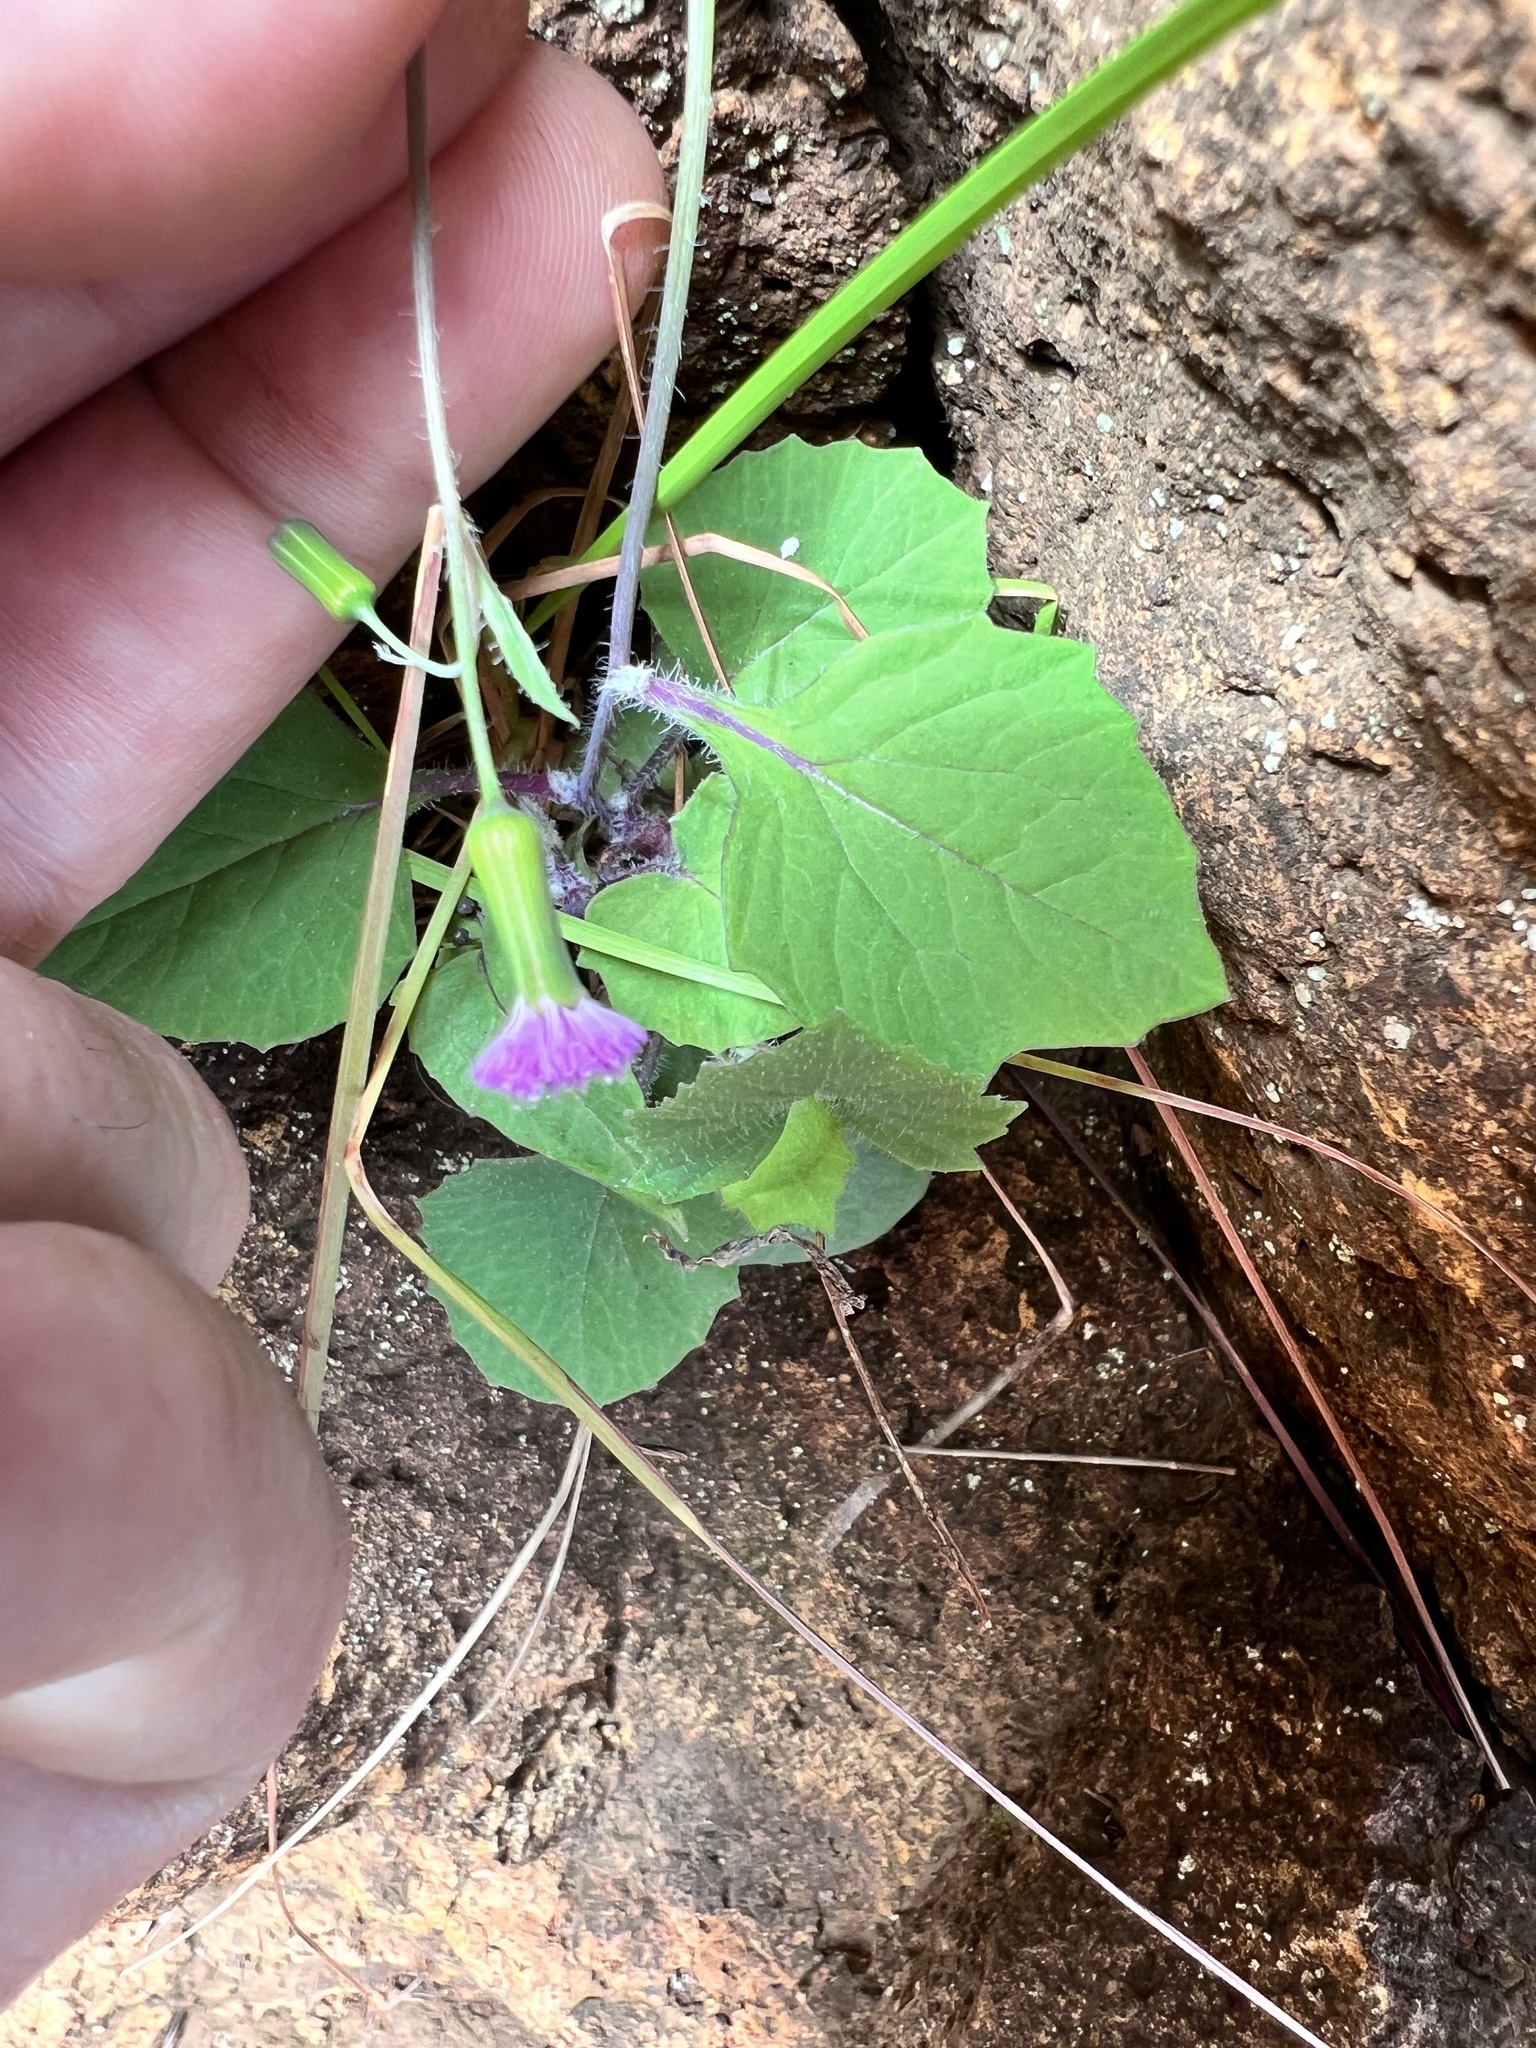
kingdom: Plantae
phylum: Tracheophyta
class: Magnoliopsida
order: Asterales
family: Asteraceae
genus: Emilia
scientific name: Emilia sonchifolia
